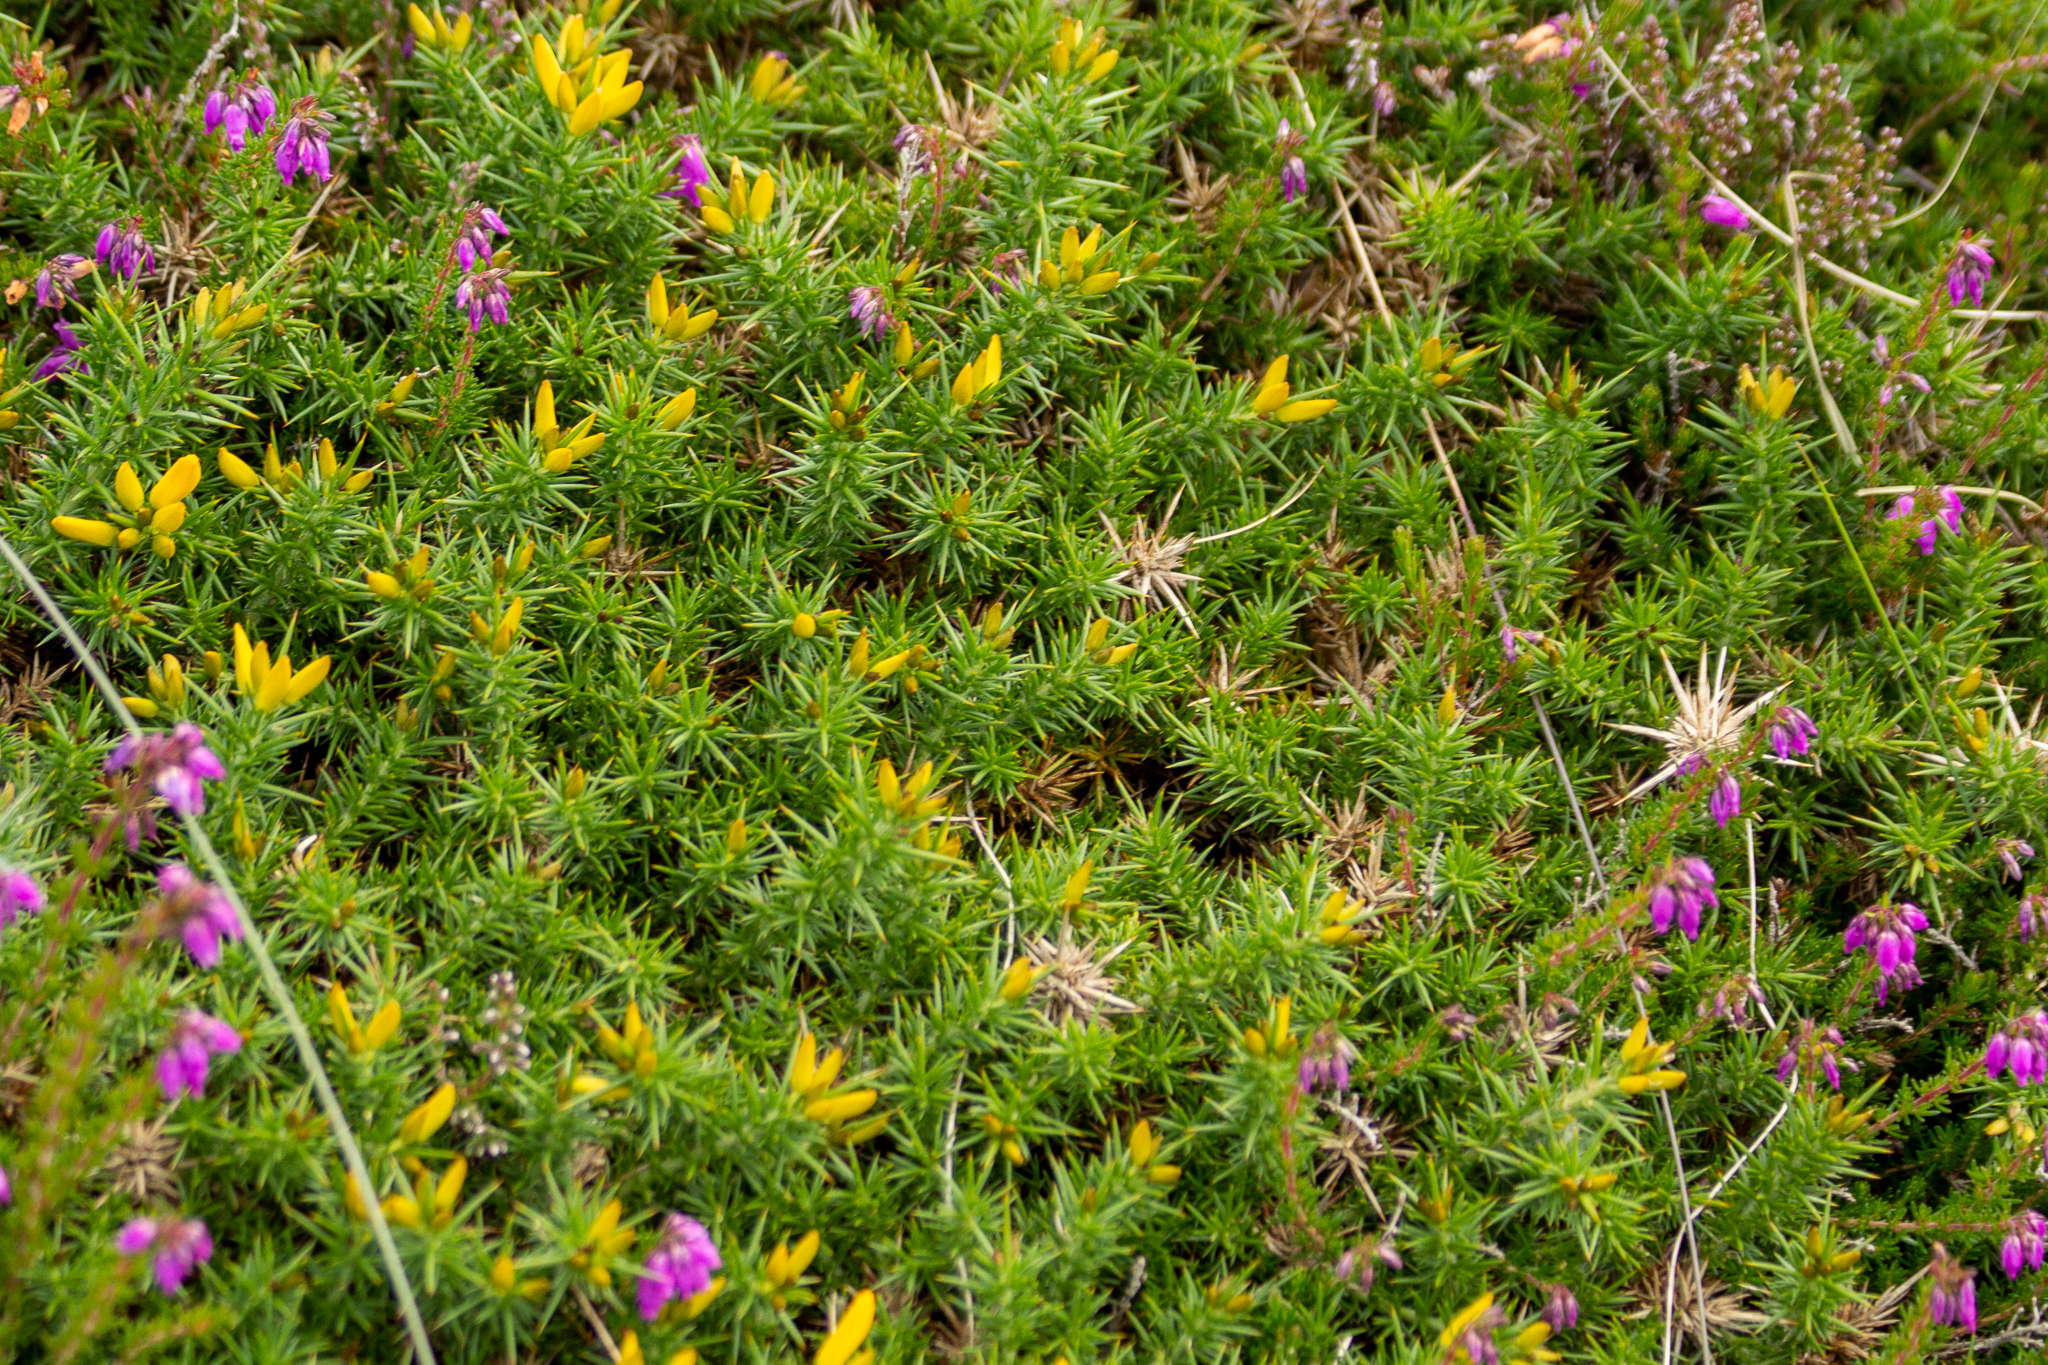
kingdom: Plantae
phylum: Tracheophyta
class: Magnoliopsida
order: Fabales
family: Fabaceae
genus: Ulex
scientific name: Ulex gallii
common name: Western gorse
